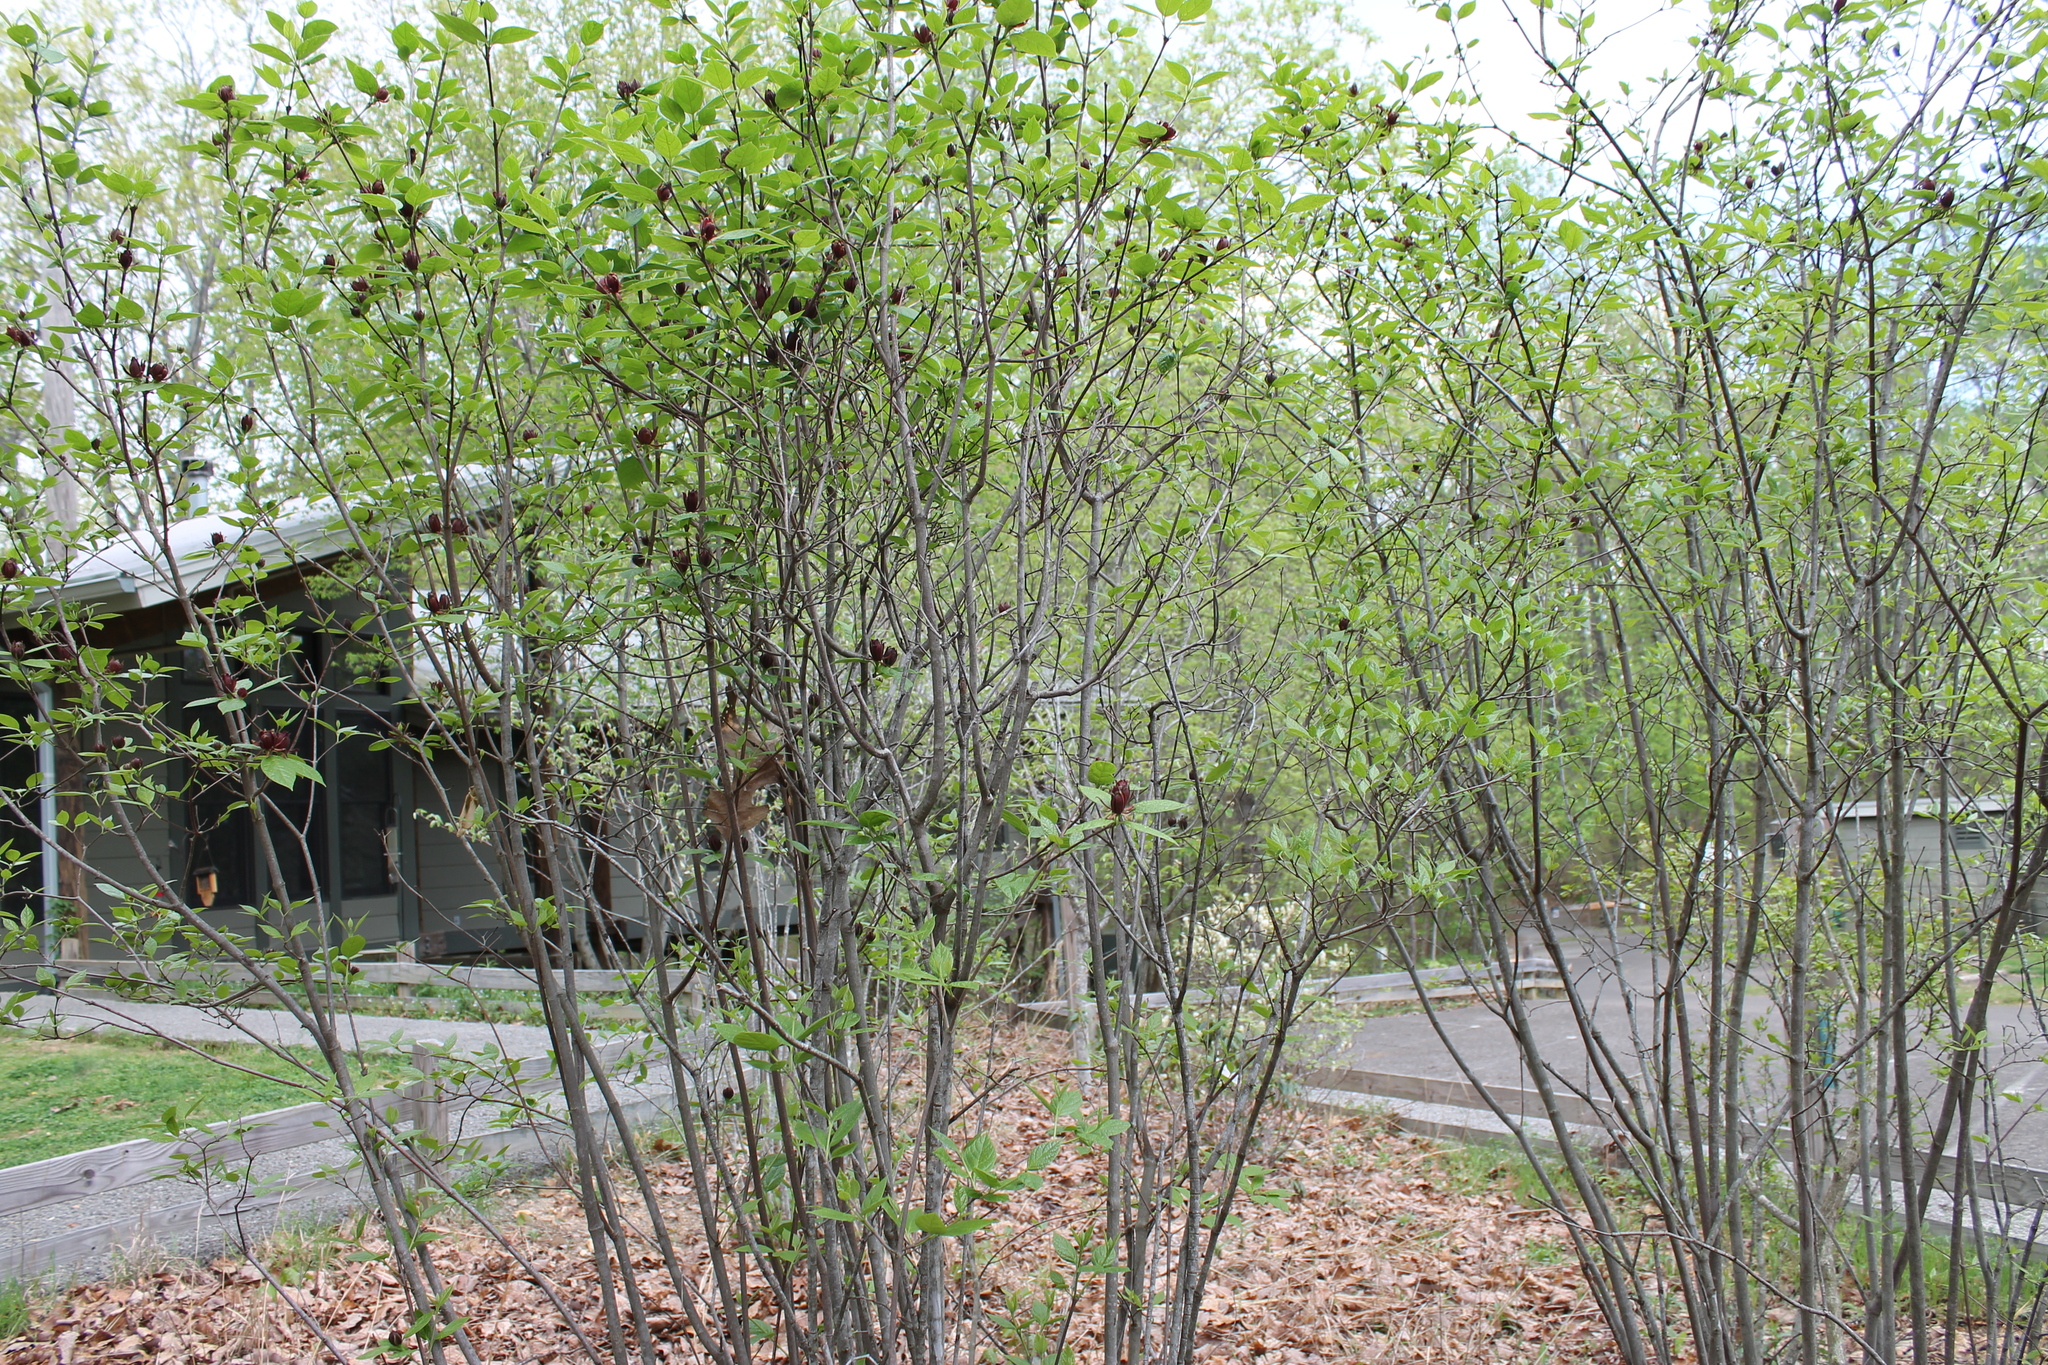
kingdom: Plantae
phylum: Tracheophyta
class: Magnoliopsida
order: Laurales
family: Calycanthaceae
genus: Calycanthus
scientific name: Calycanthus floridus
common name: Carolina-allspice
